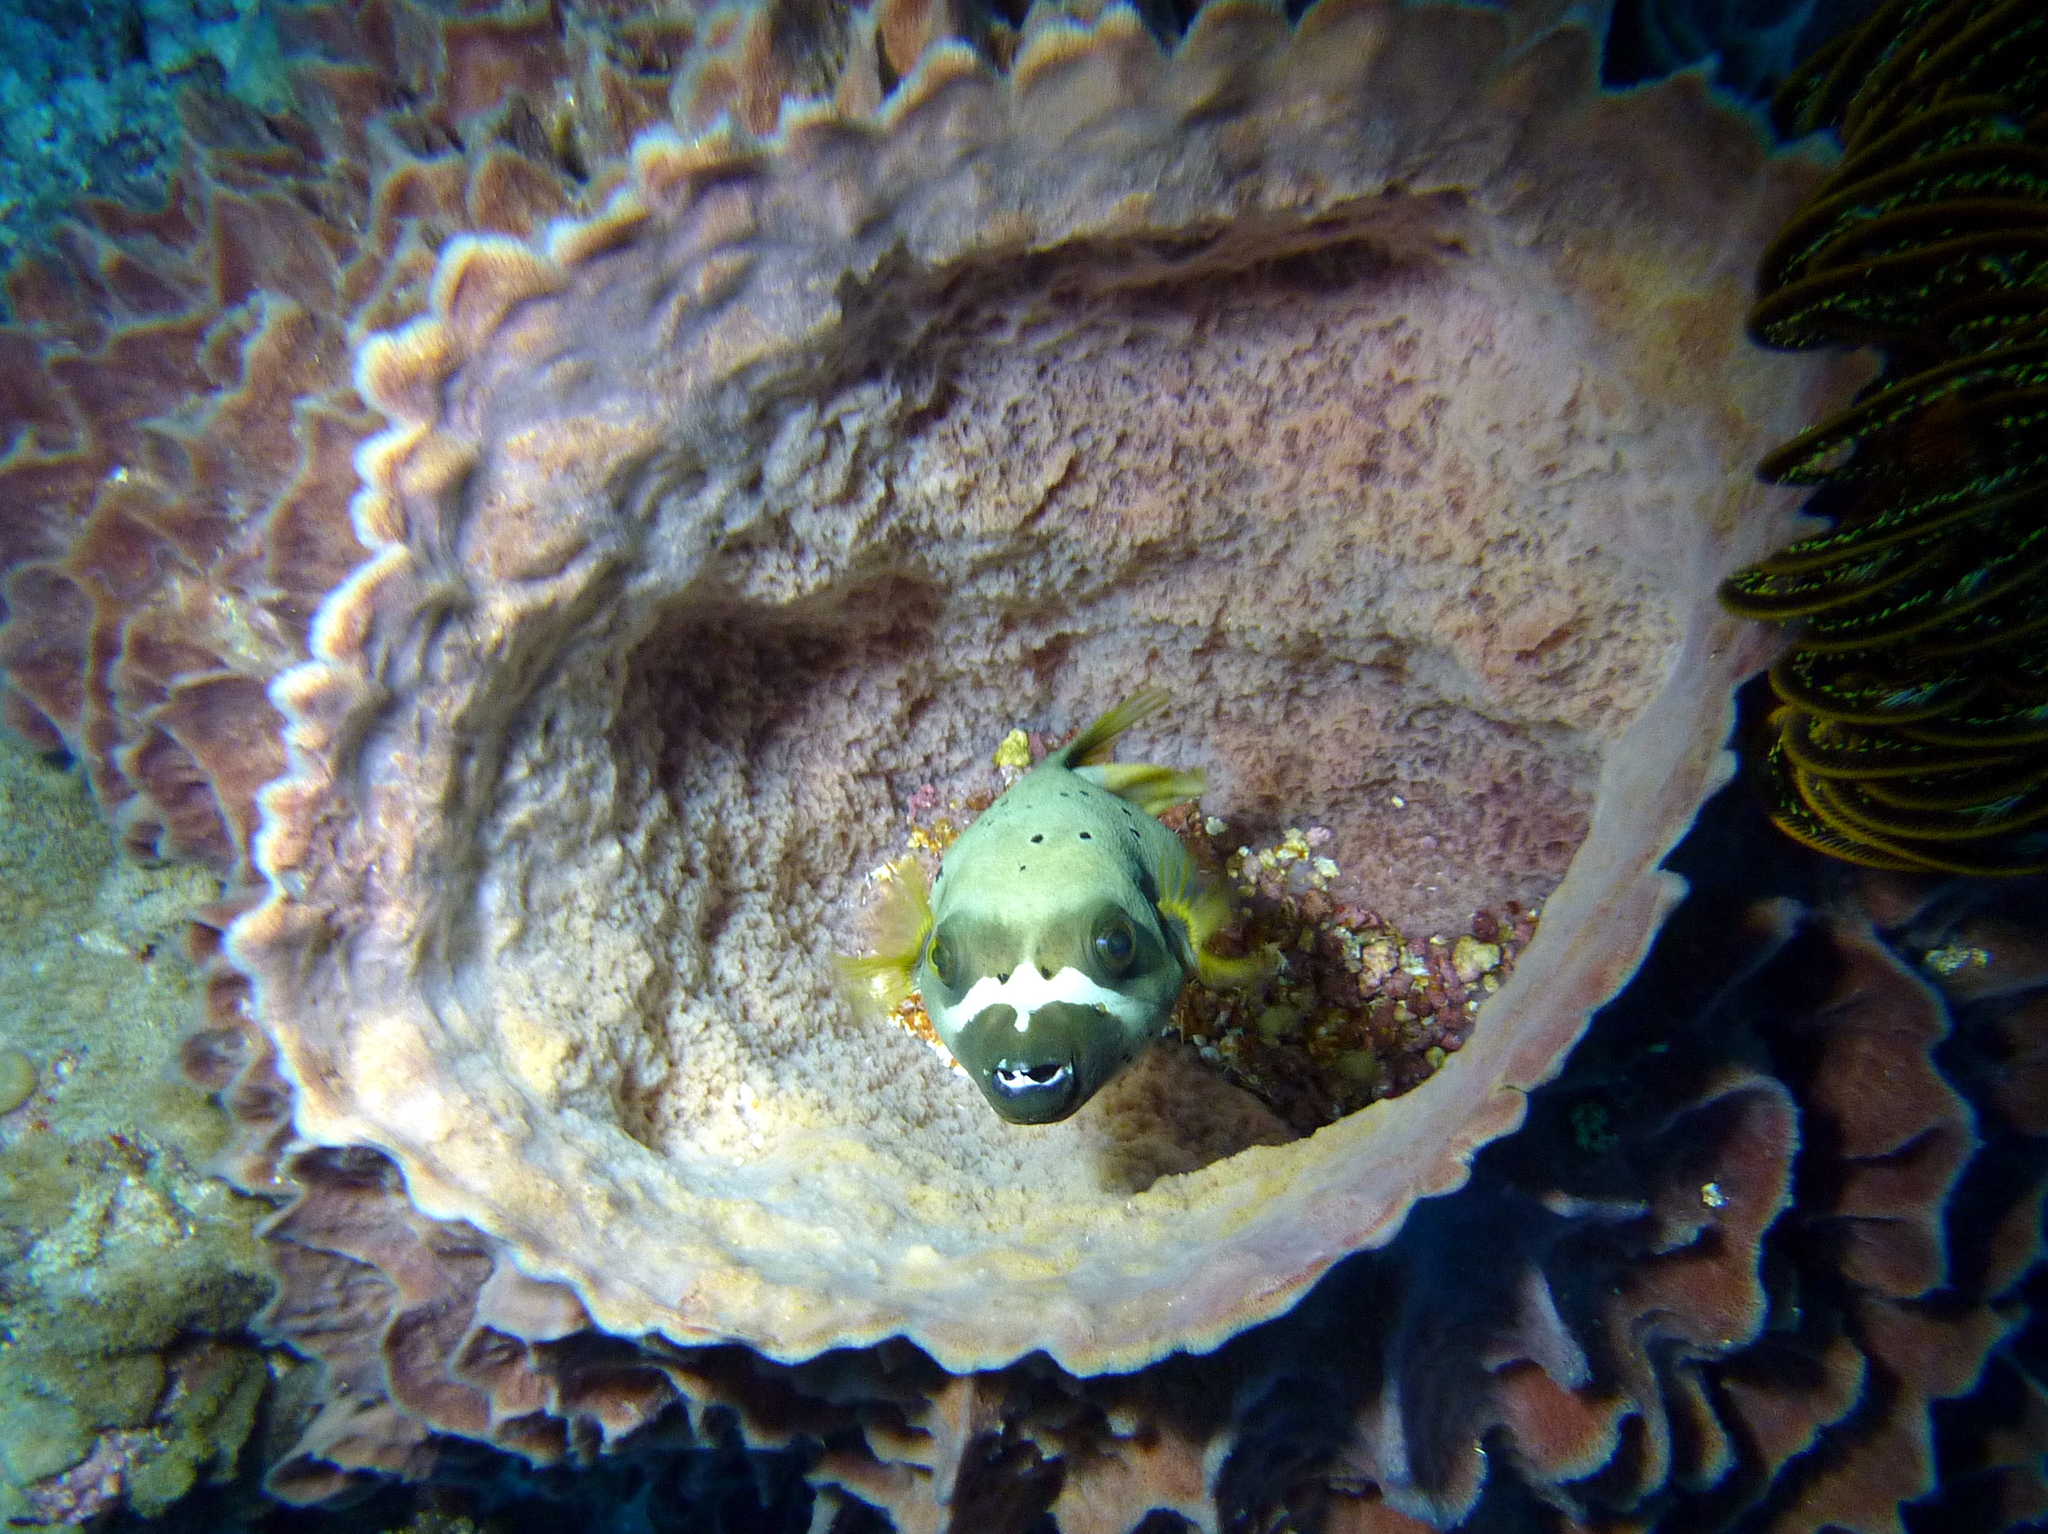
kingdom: Animalia
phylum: Chordata
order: Tetraodontiformes
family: Tetraodontidae
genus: Arothron
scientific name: Arothron nigropunctatus
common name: Black spotted blow fish
